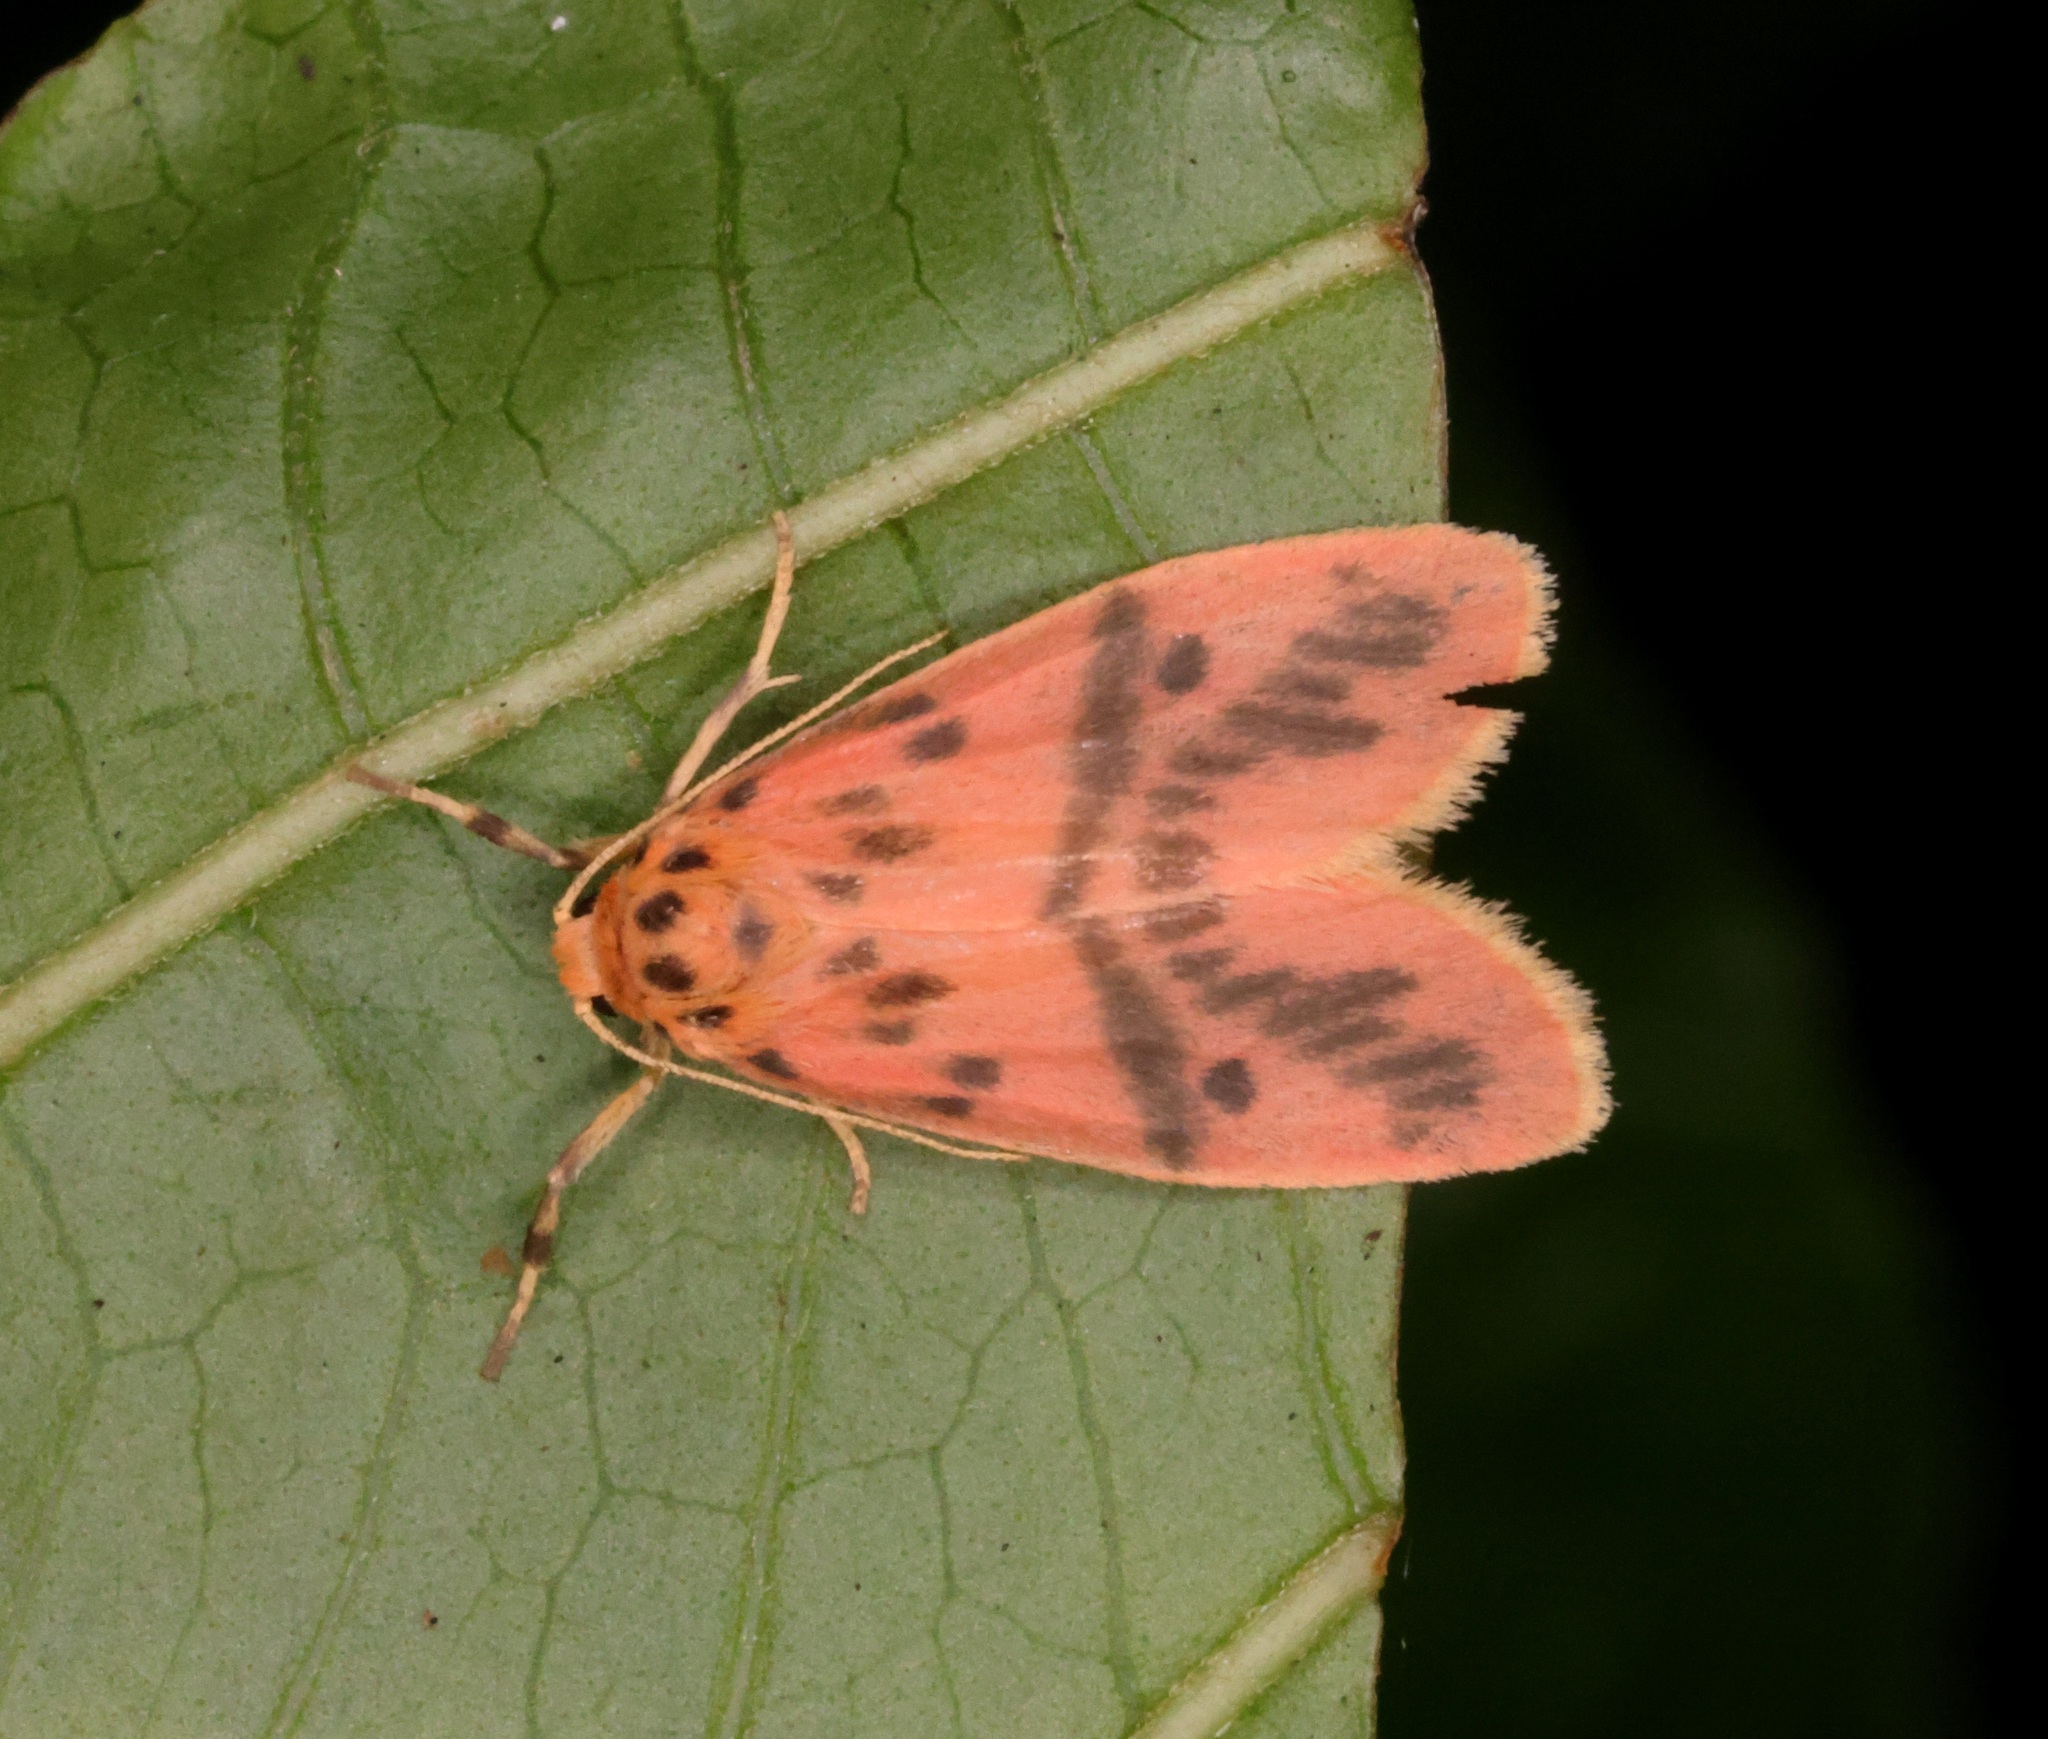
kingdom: Animalia
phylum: Arthropoda
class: Insecta
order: Lepidoptera
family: Erebidae
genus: Arctelene
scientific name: Arctelene arcuata
